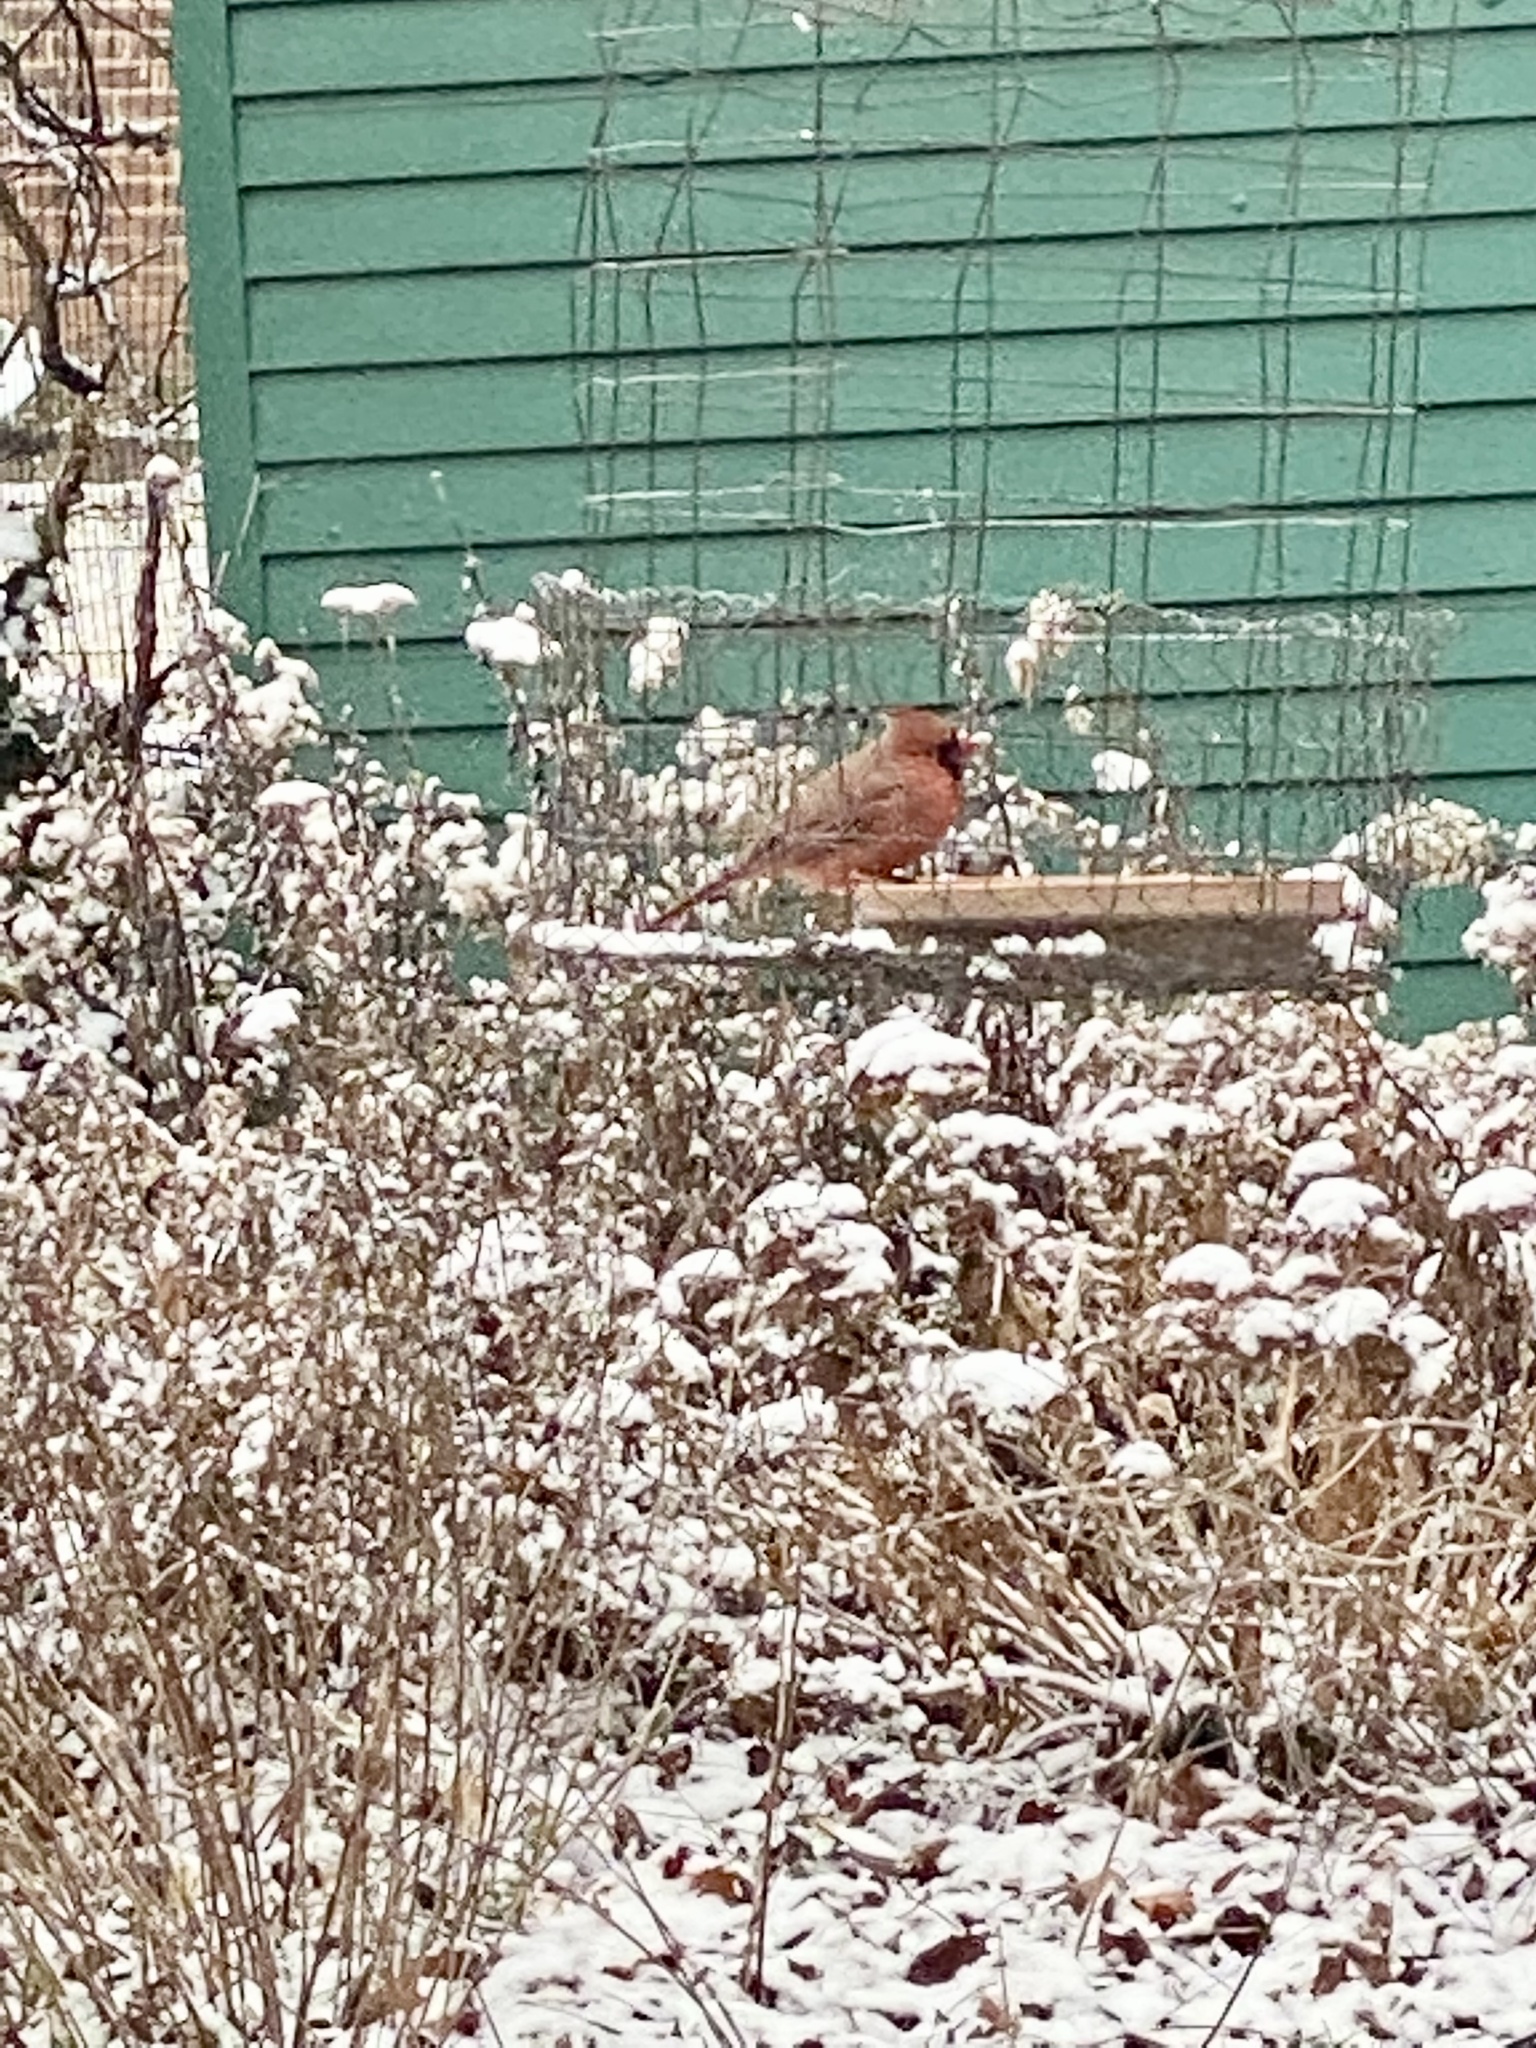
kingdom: Animalia
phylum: Chordata
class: Aves
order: Passeriformes
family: Cardinalidae
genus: Cardinalis
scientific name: Cardinalis cardinalis
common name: Northern cardinal
